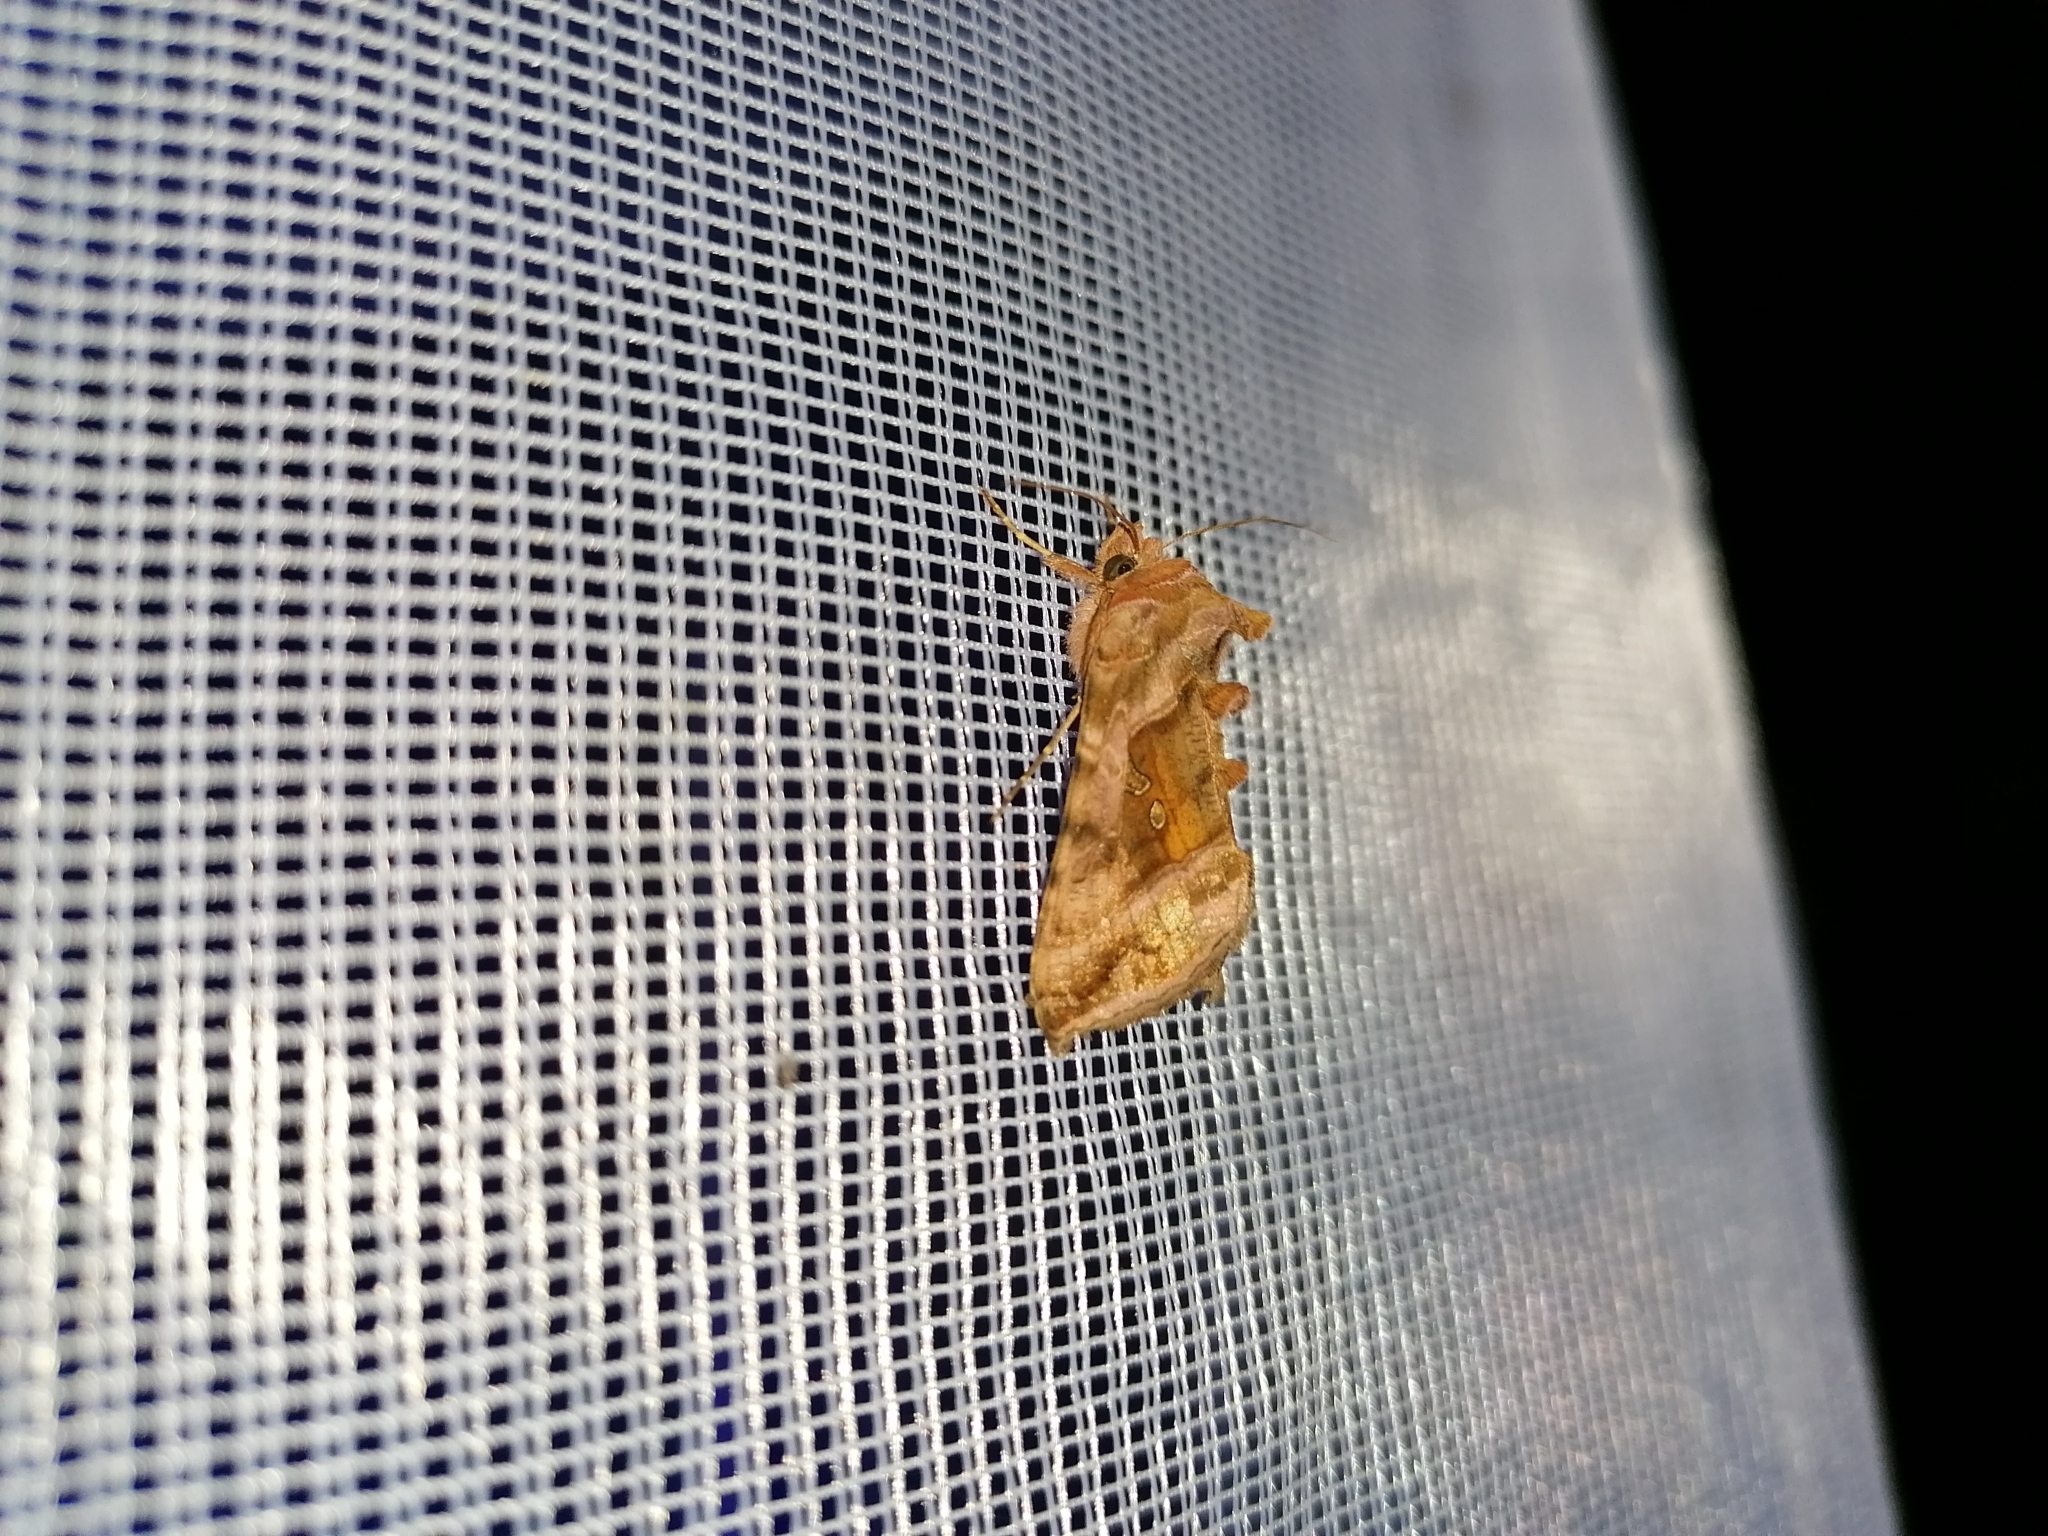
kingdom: Animalia
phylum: Arthropoda
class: Insecta
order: Lepidoptera
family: Noctuidae
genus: Autographa
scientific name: Autographa jota
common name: Plain golden y
